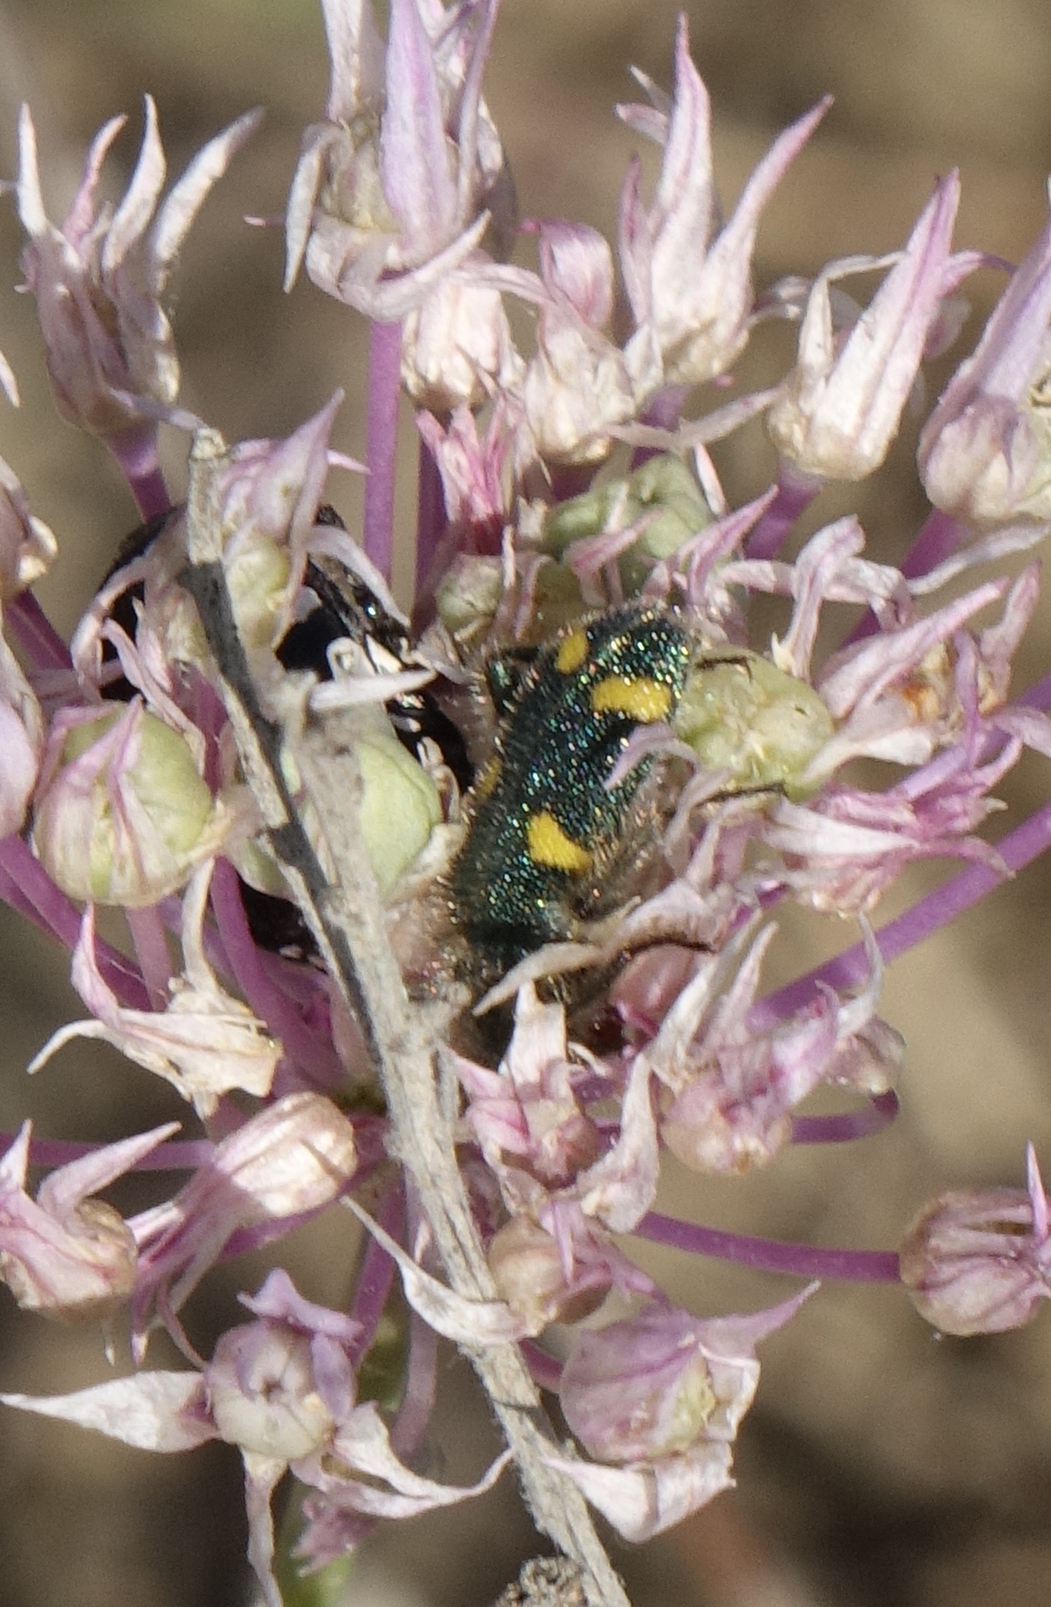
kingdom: Plantae
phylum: Tracheophyta
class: Liliopsida
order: Asparagales
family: Amaryllidaceae
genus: Allium
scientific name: Allium rubellum
